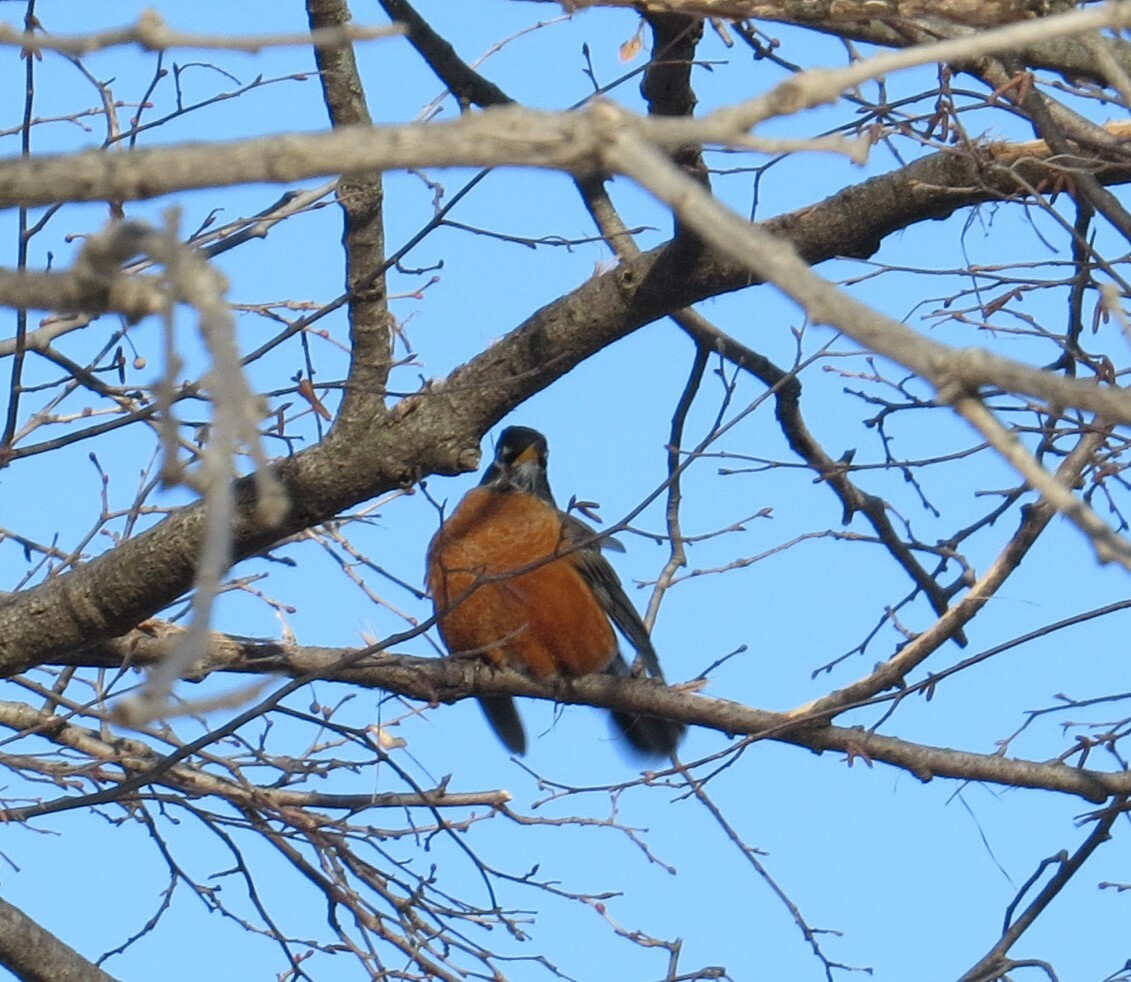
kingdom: Animalia
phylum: Chordata
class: Aves
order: Passeriformes
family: Turdidae
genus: Turdus
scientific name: Turdus migratorius
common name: American robin
